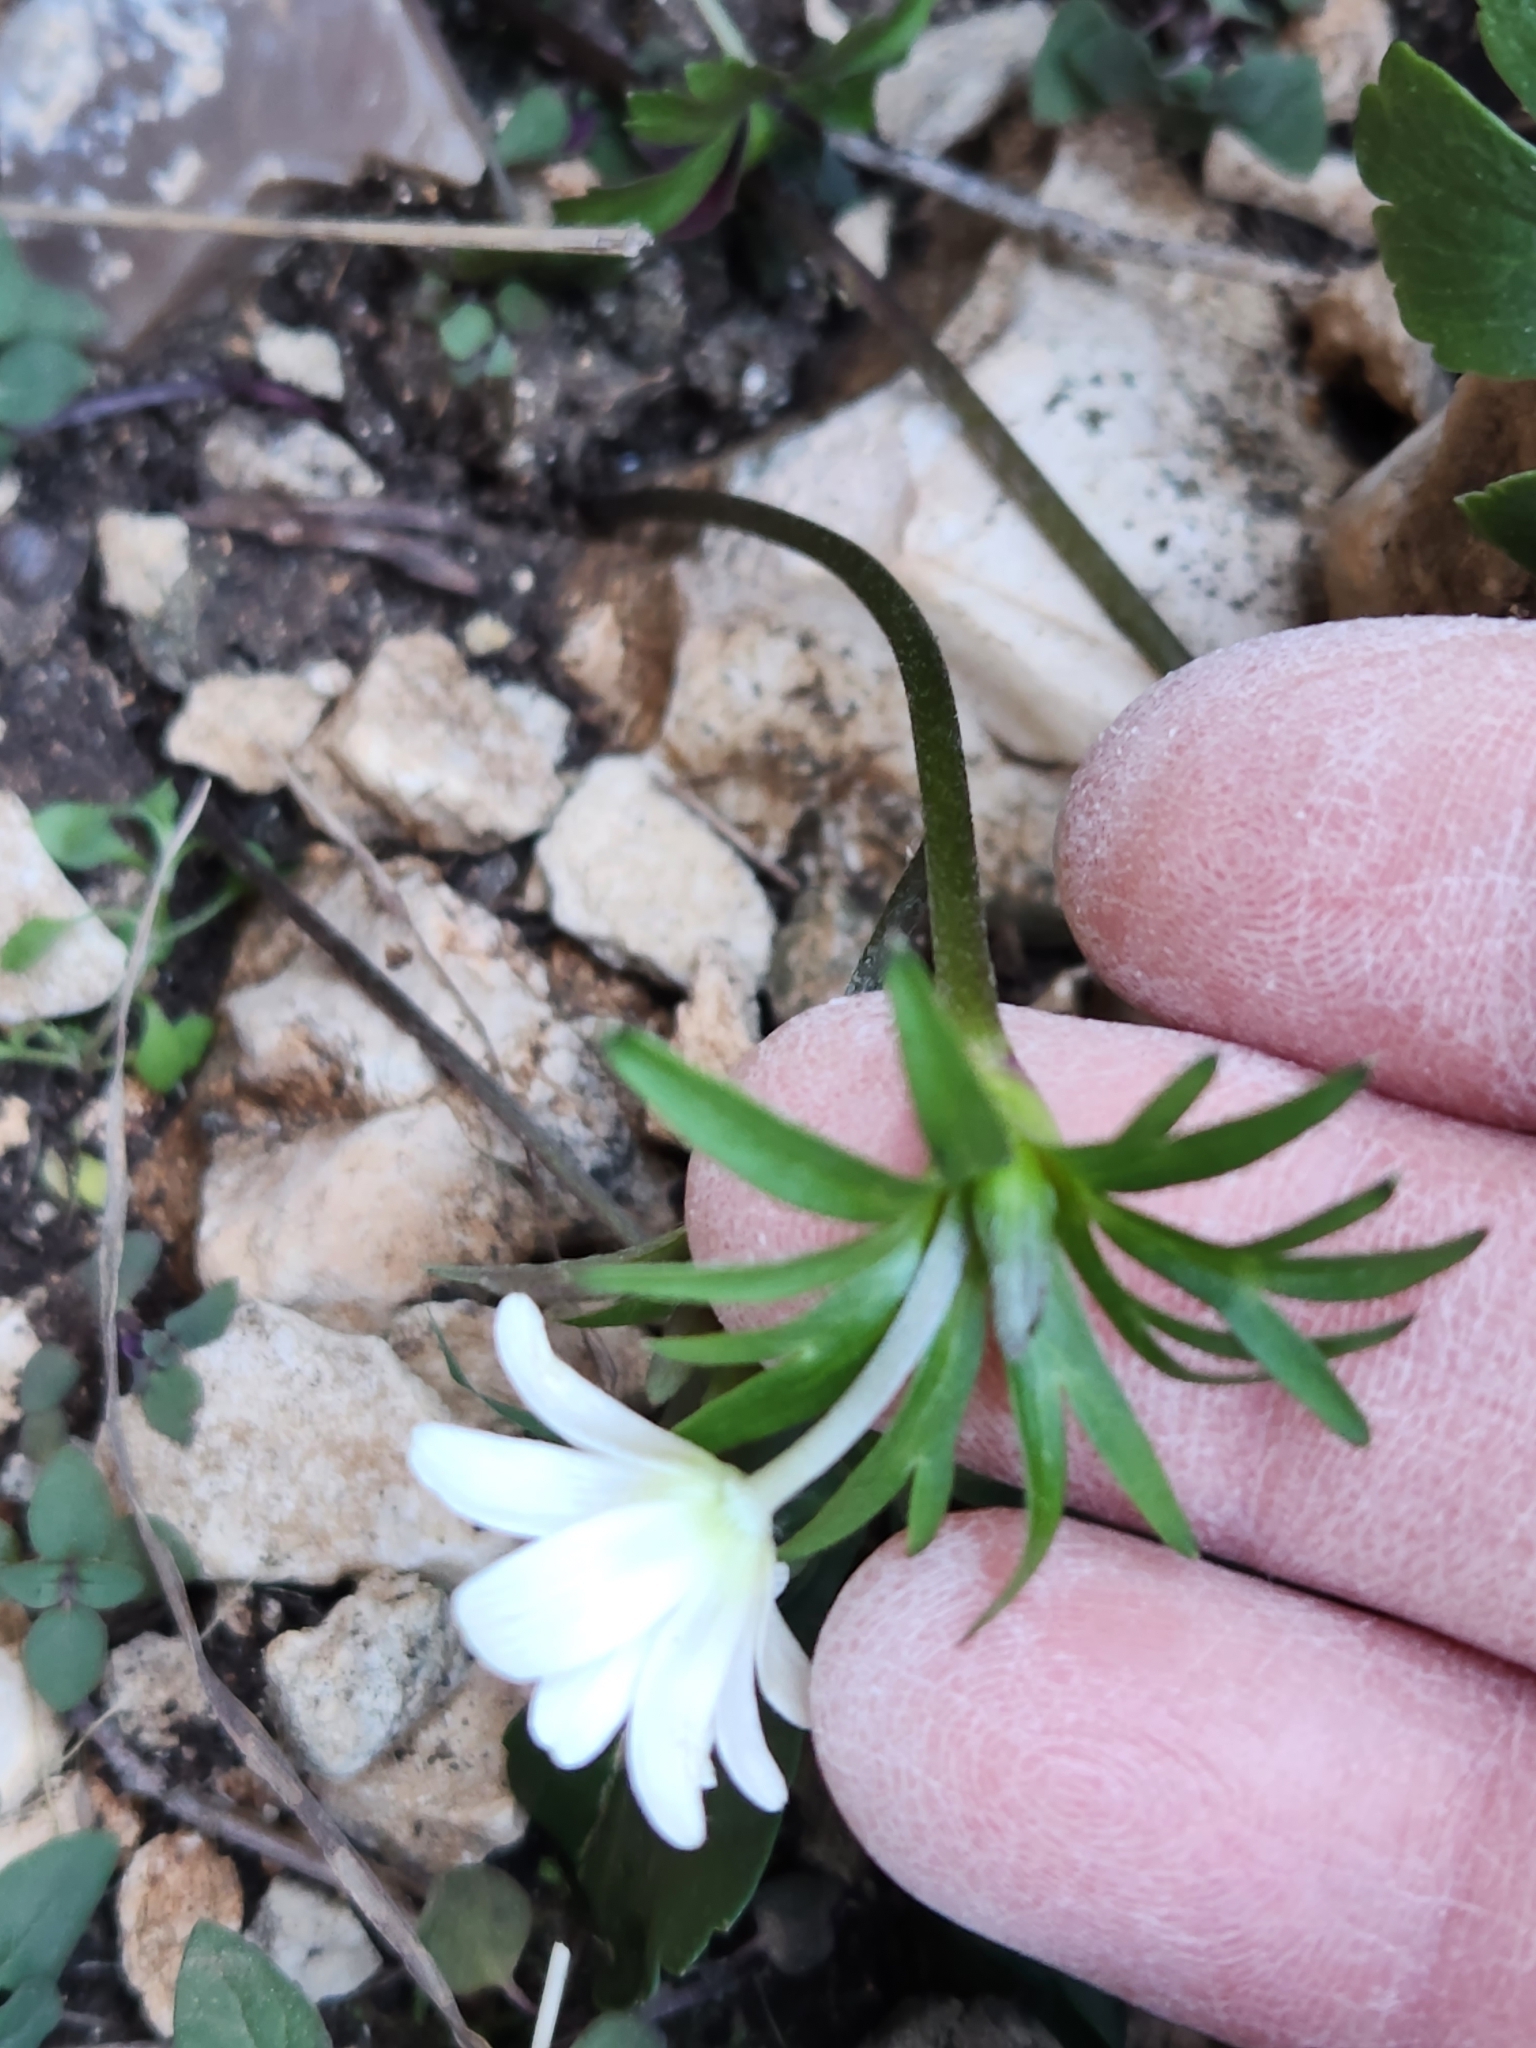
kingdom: Plantae
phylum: Tracheophyta
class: Magnoliopsida
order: Ranunculales
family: Ranunculaceae
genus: Anemone
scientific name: Anemone edwardsiana
